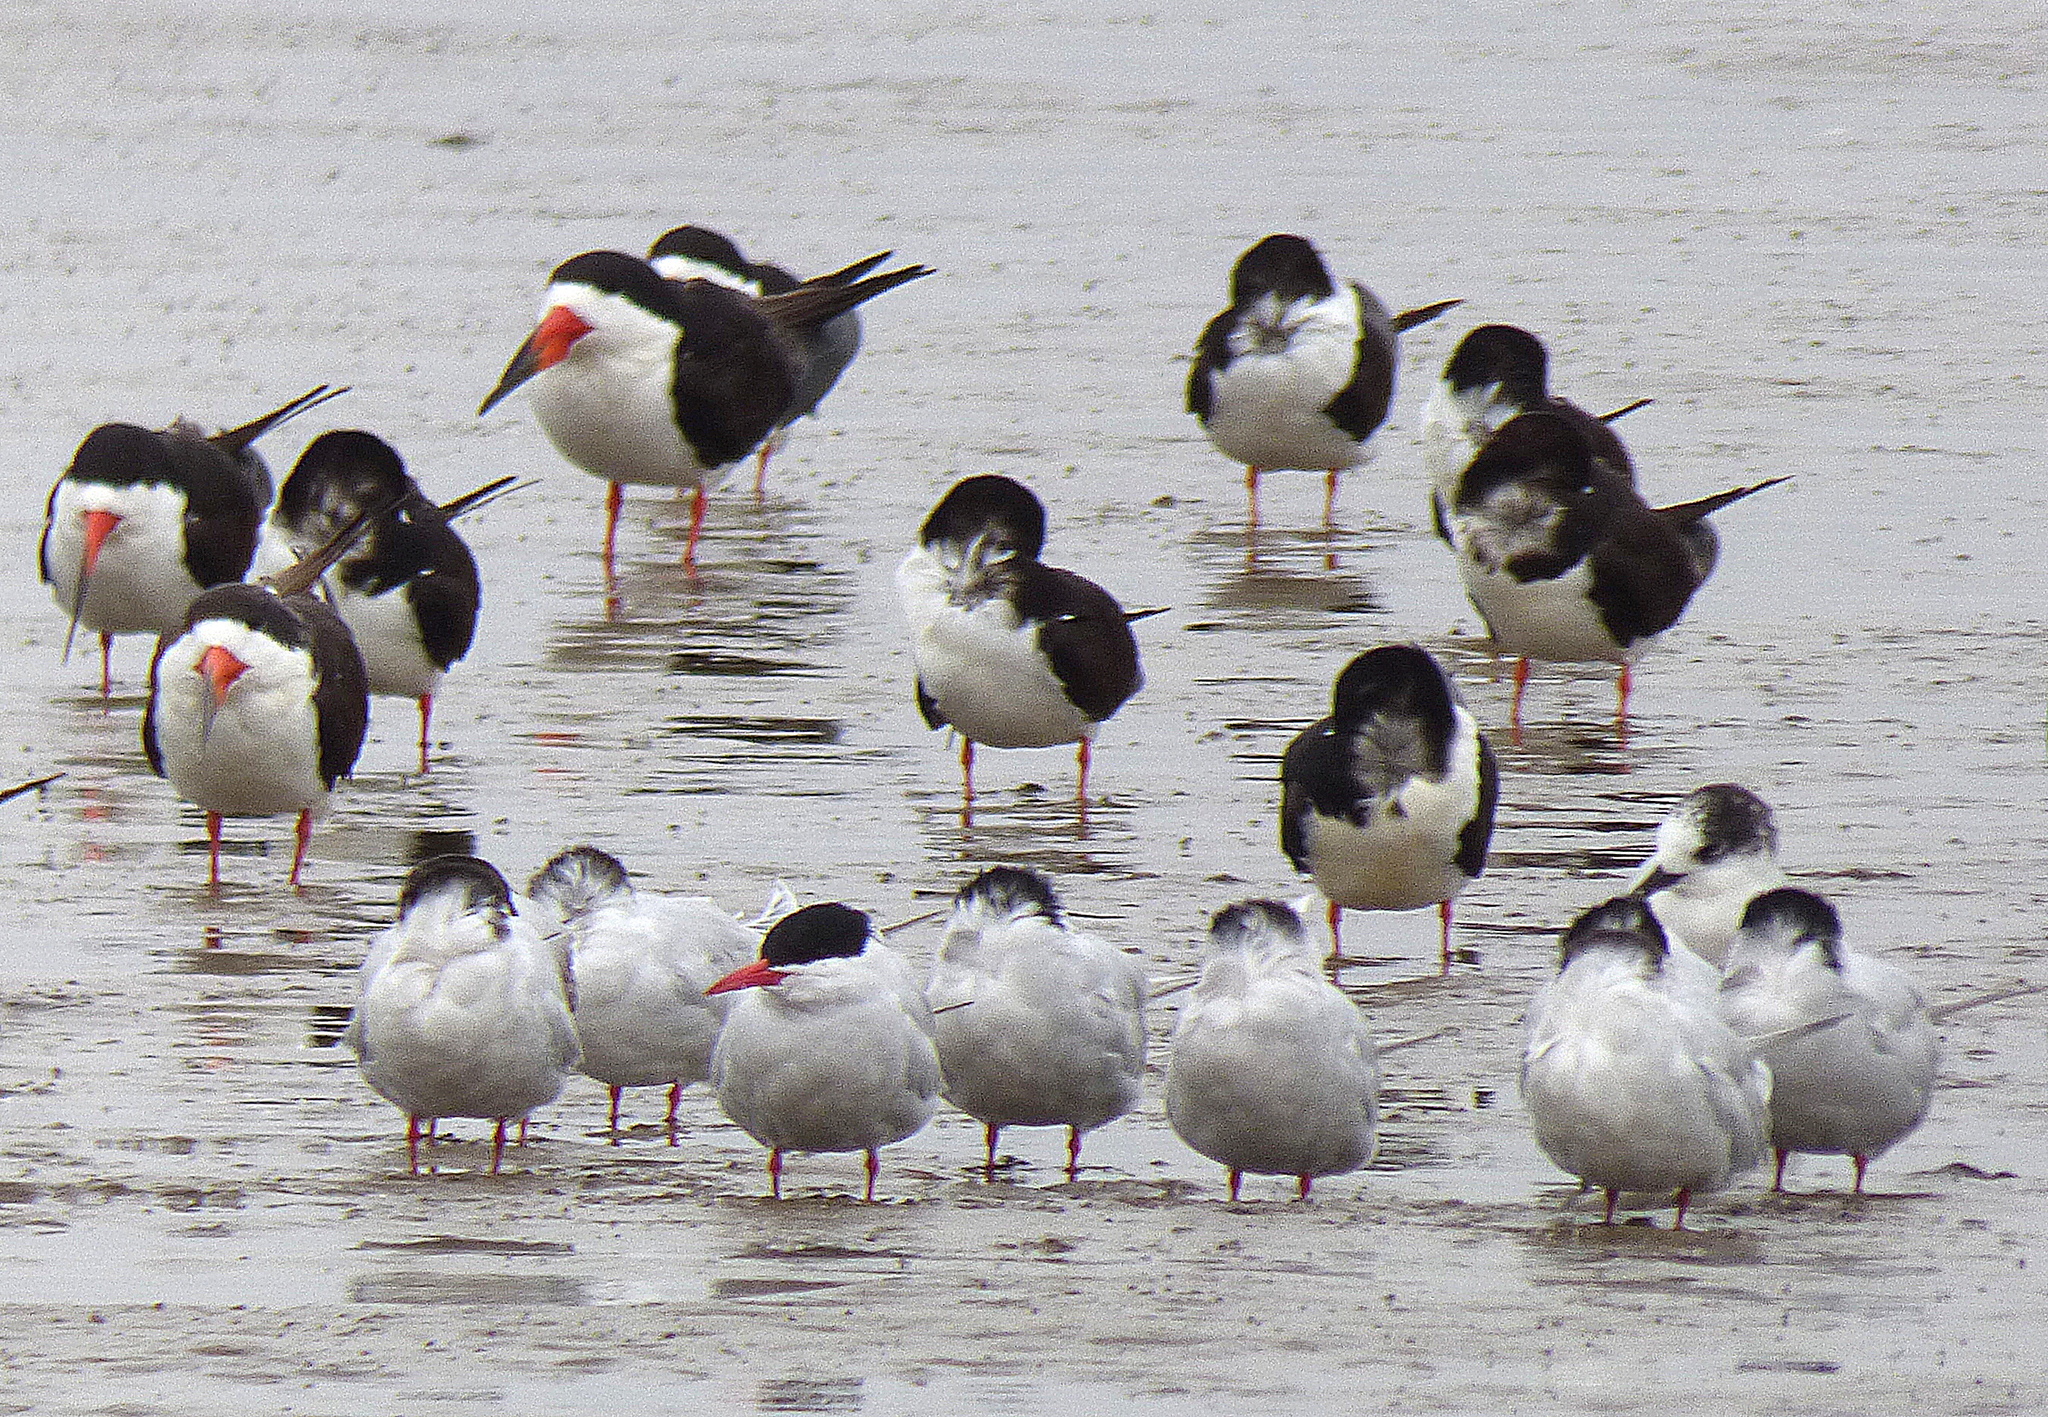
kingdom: Animalia
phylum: Chordata
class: Aves
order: Charadriiformes
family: Laridae
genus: Sterna
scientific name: Sterna hirundinacea
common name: South american tern
